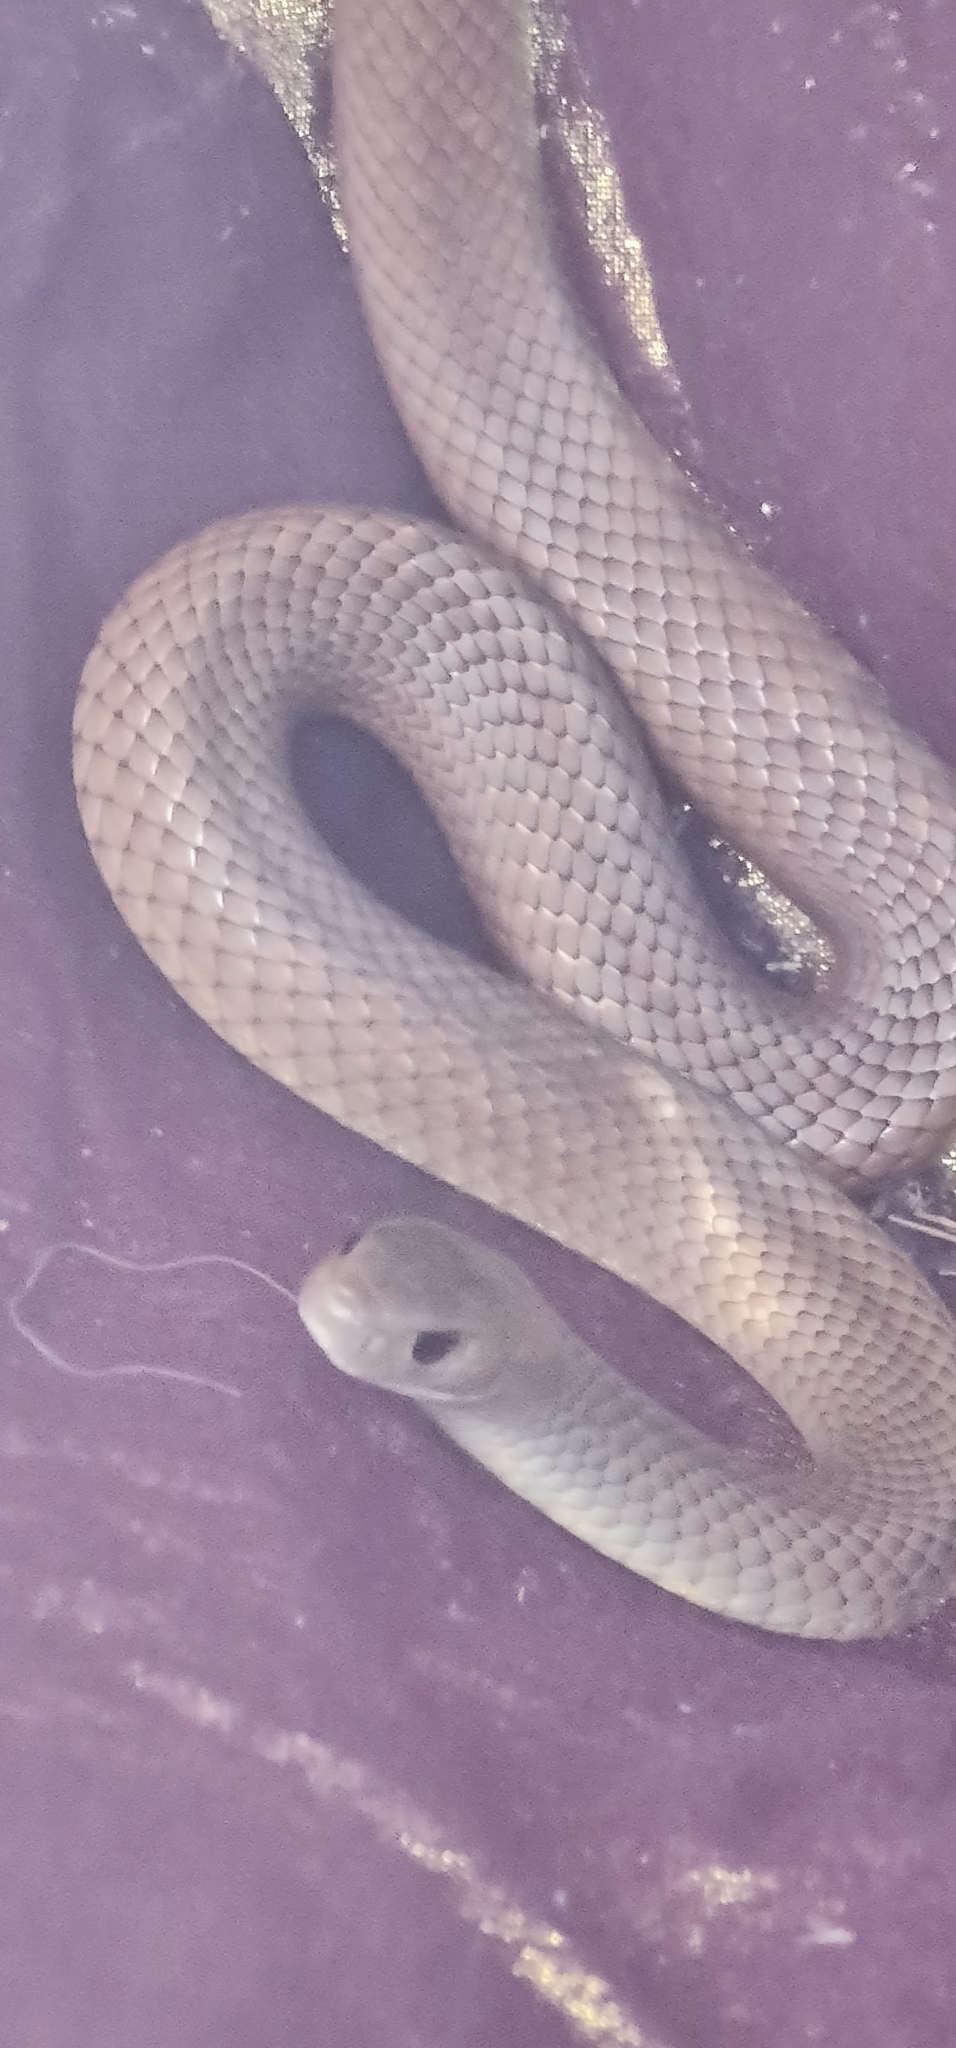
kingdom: Animalia
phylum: Chordata
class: Squamata
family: Elapidae
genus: Pseudonaja
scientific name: Pseudonaja textilis
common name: Eastern brown snake
